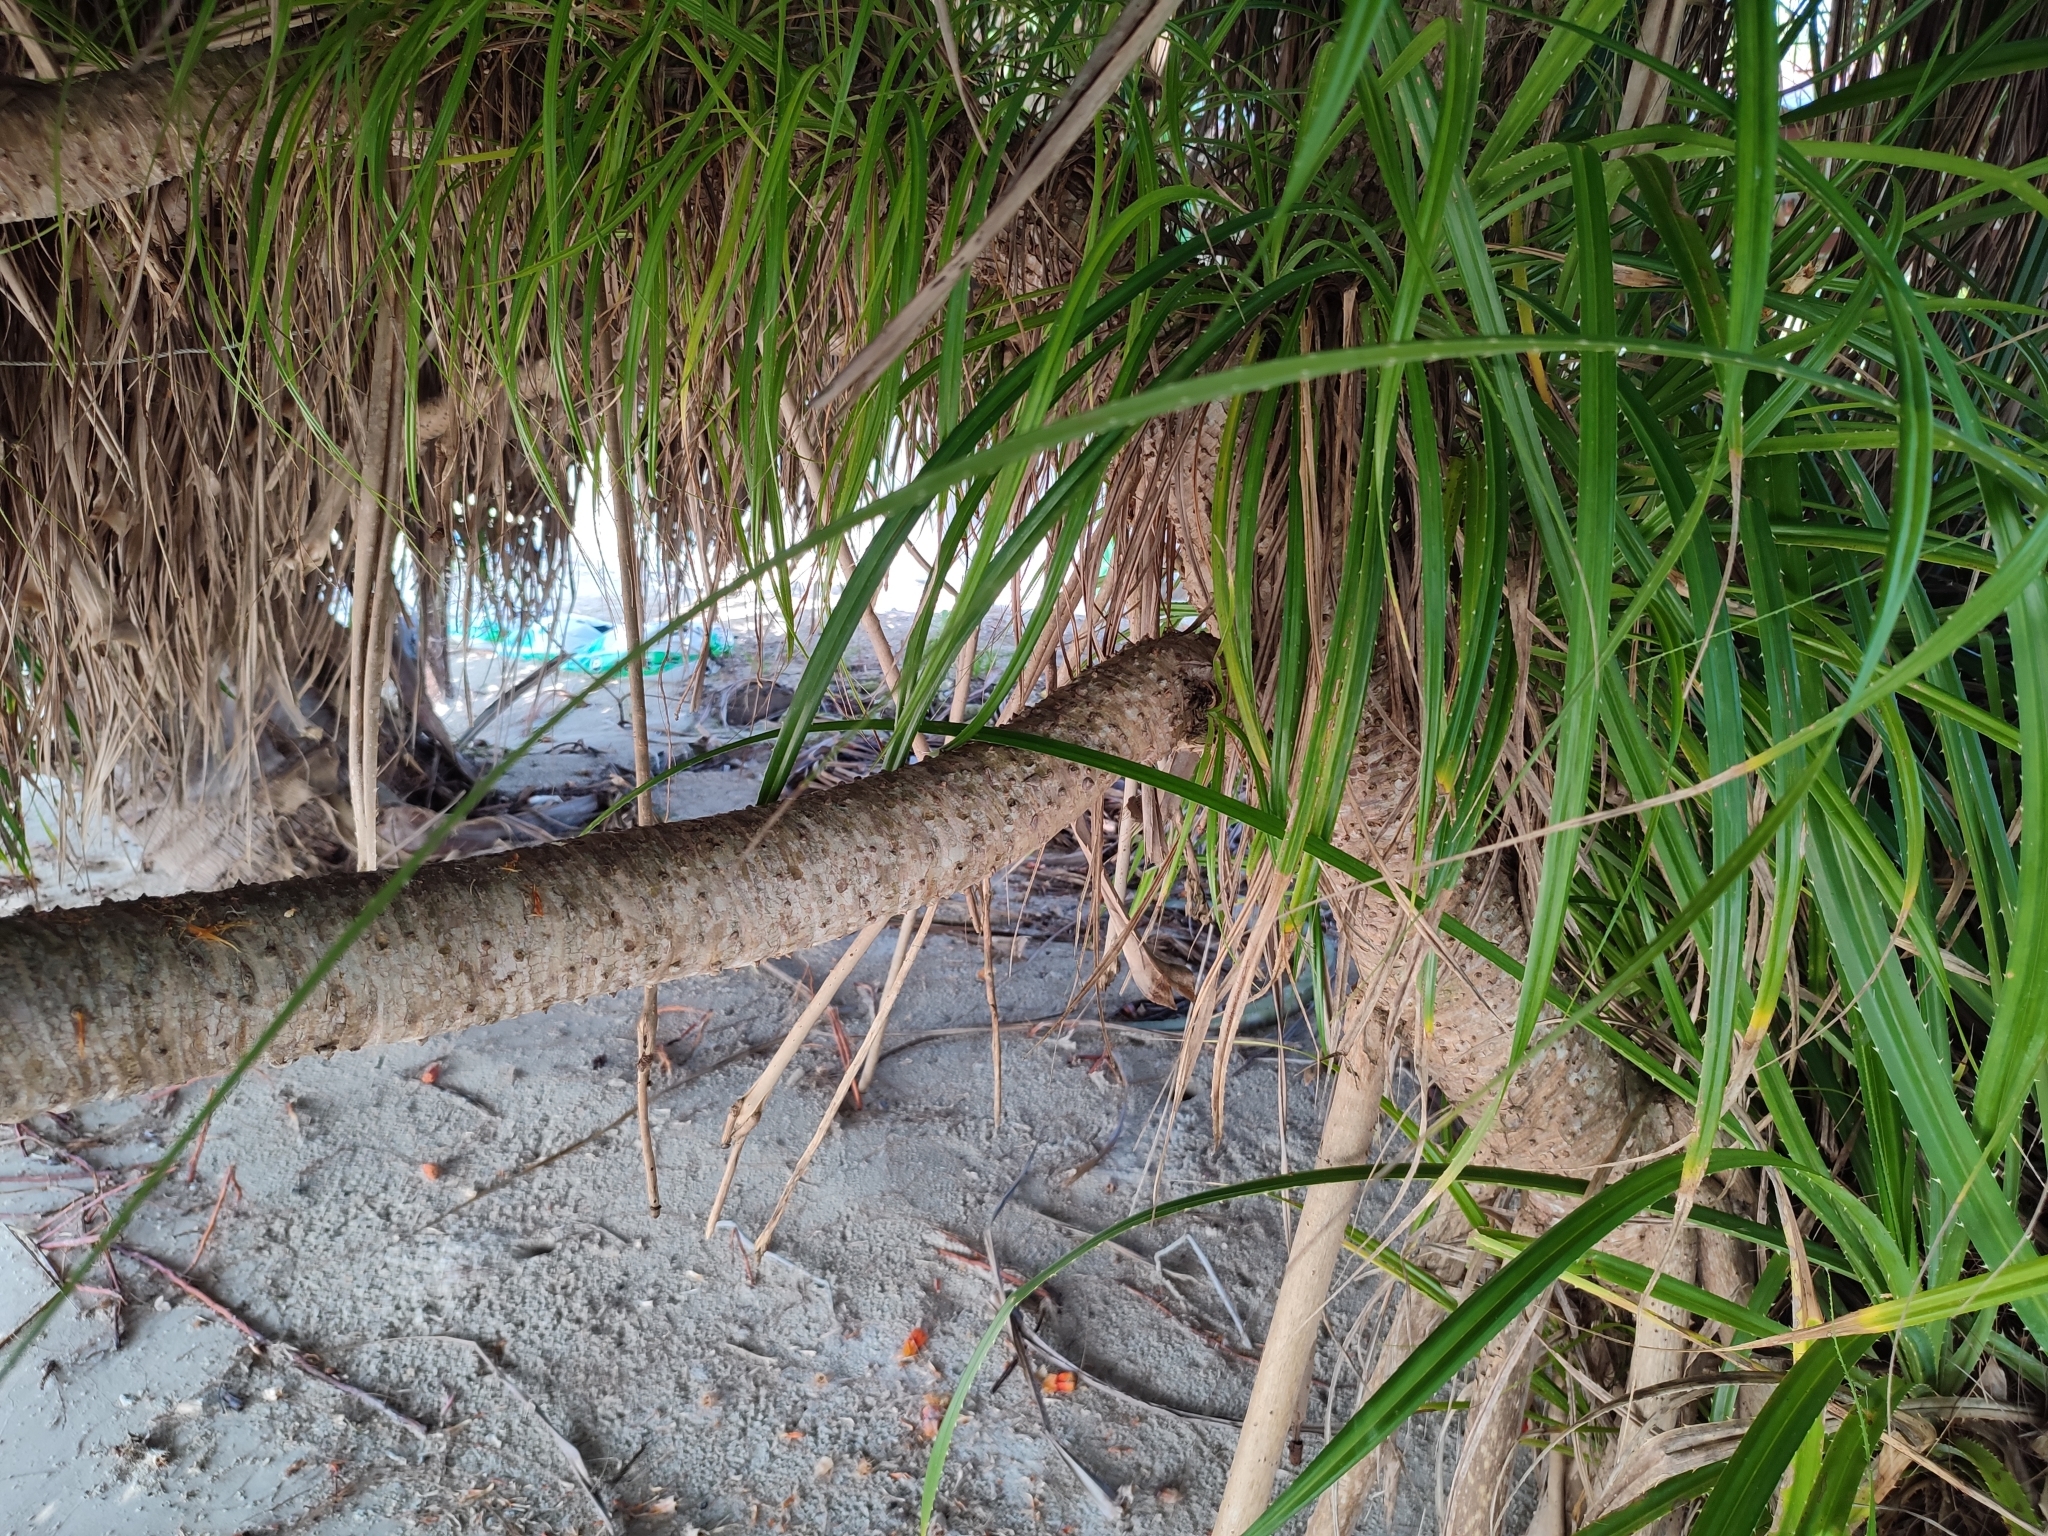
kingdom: Plantae
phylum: Tracheophyta
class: Liliopsida
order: Pandanales
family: Pandanaceae
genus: Pandanus
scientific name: Pandanus tectorius
